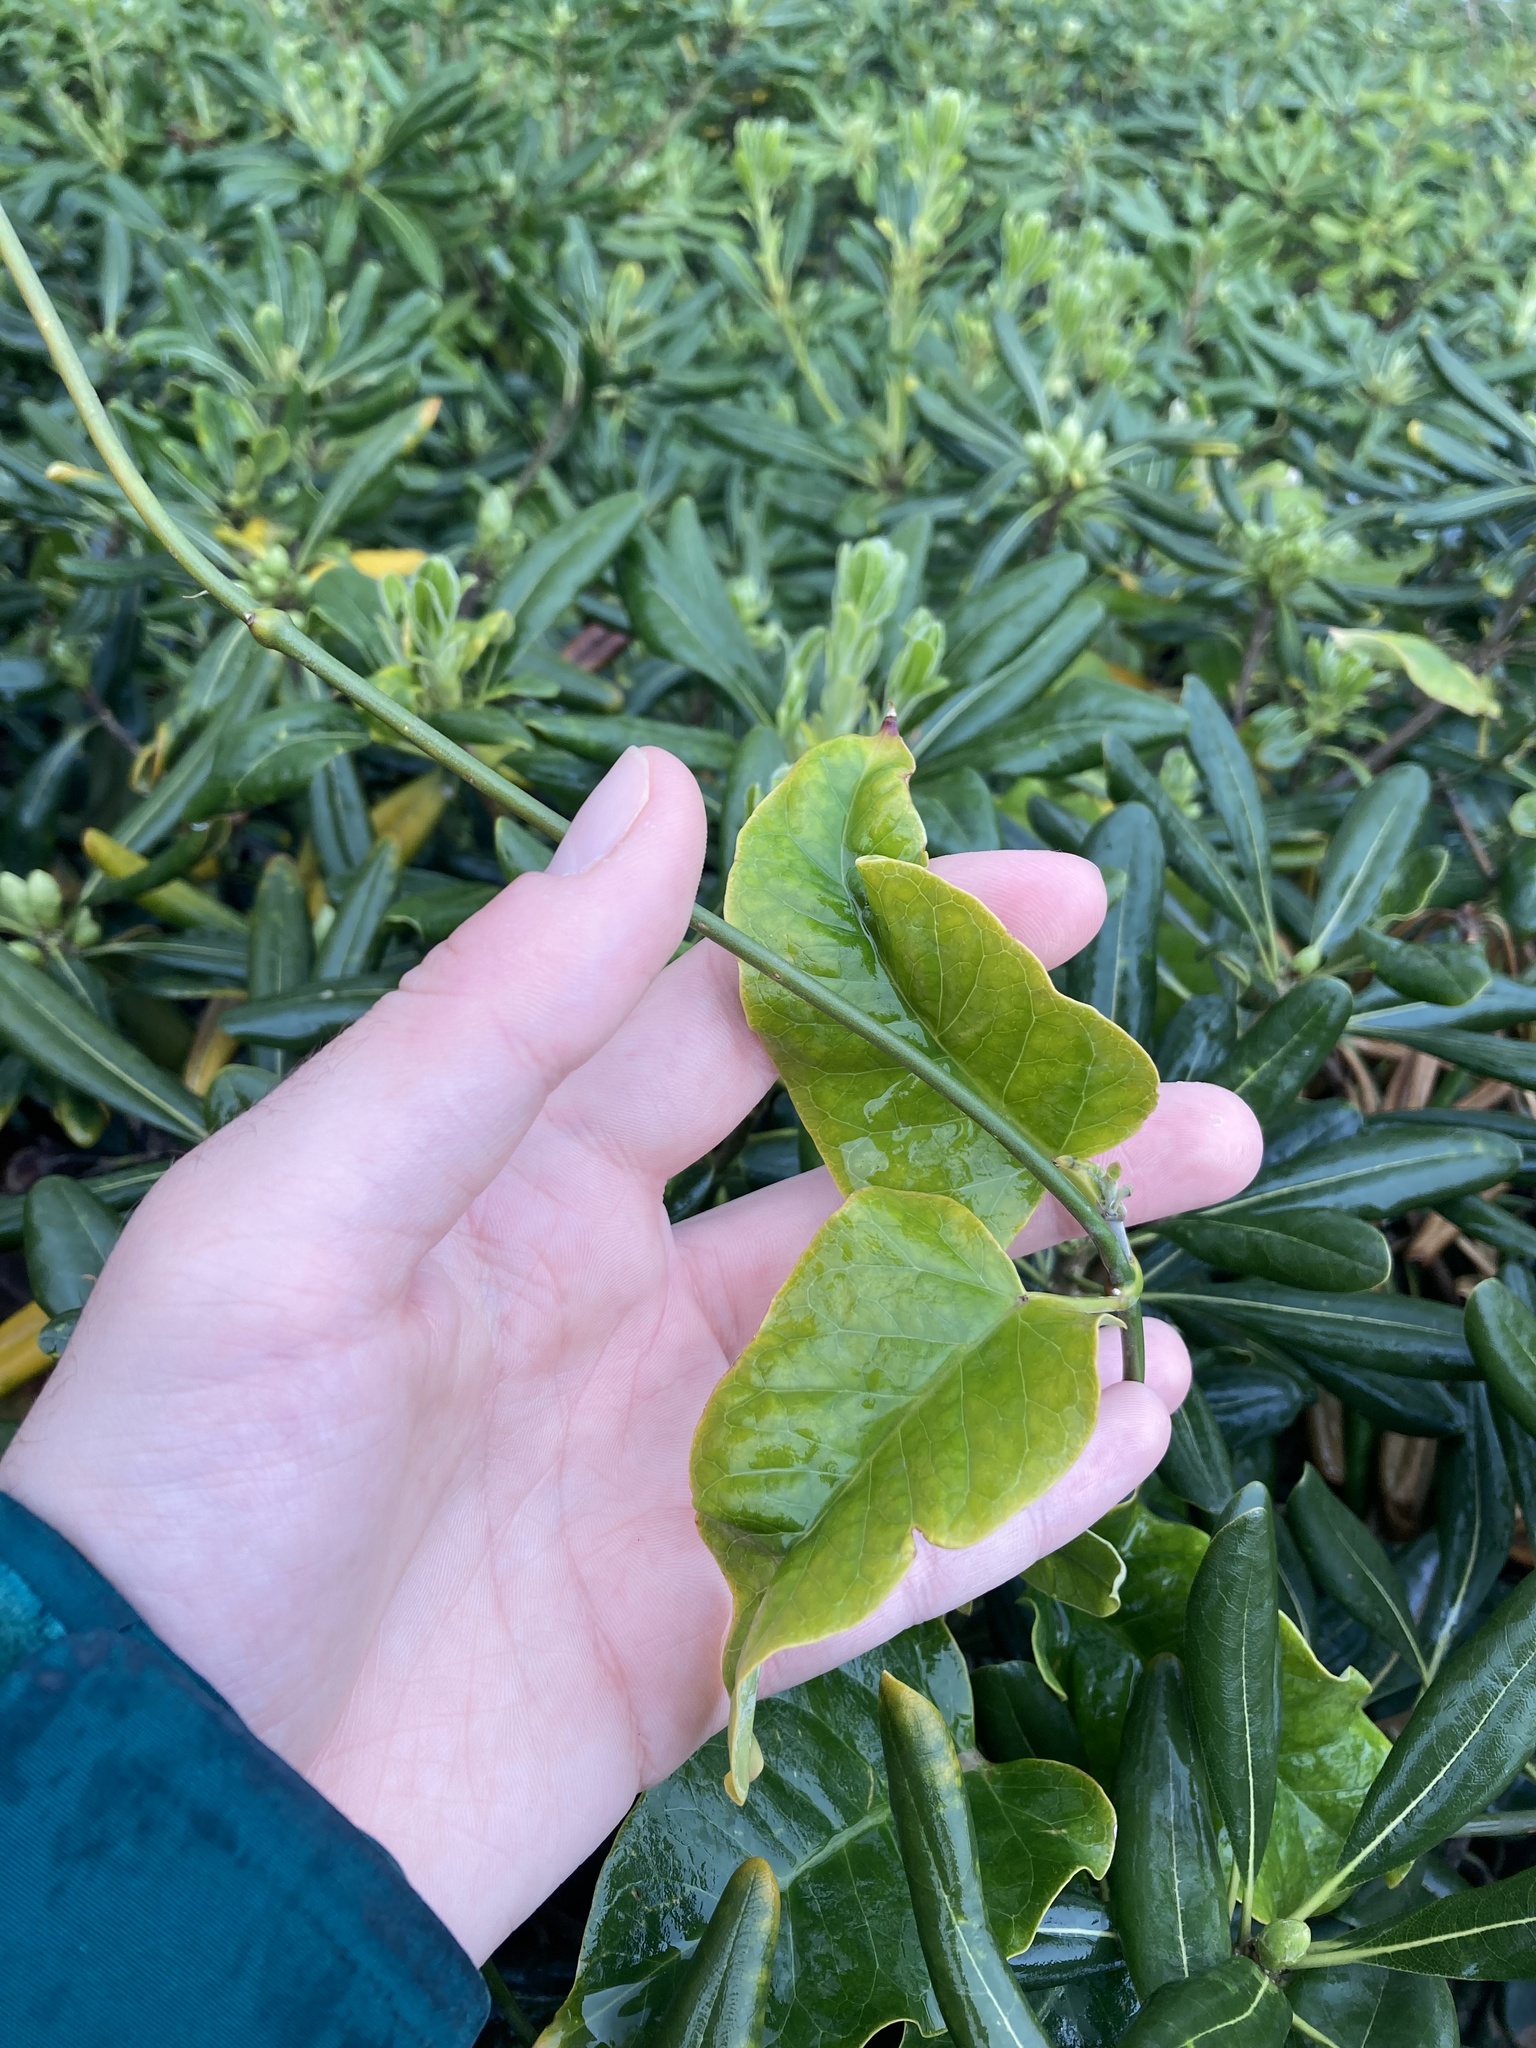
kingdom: Plantae
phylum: Tracheophyta
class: Magnoliopsida
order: Gentianales
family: Apocynaceae
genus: Araujia
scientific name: Araujia sericifera
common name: White bladderflower
